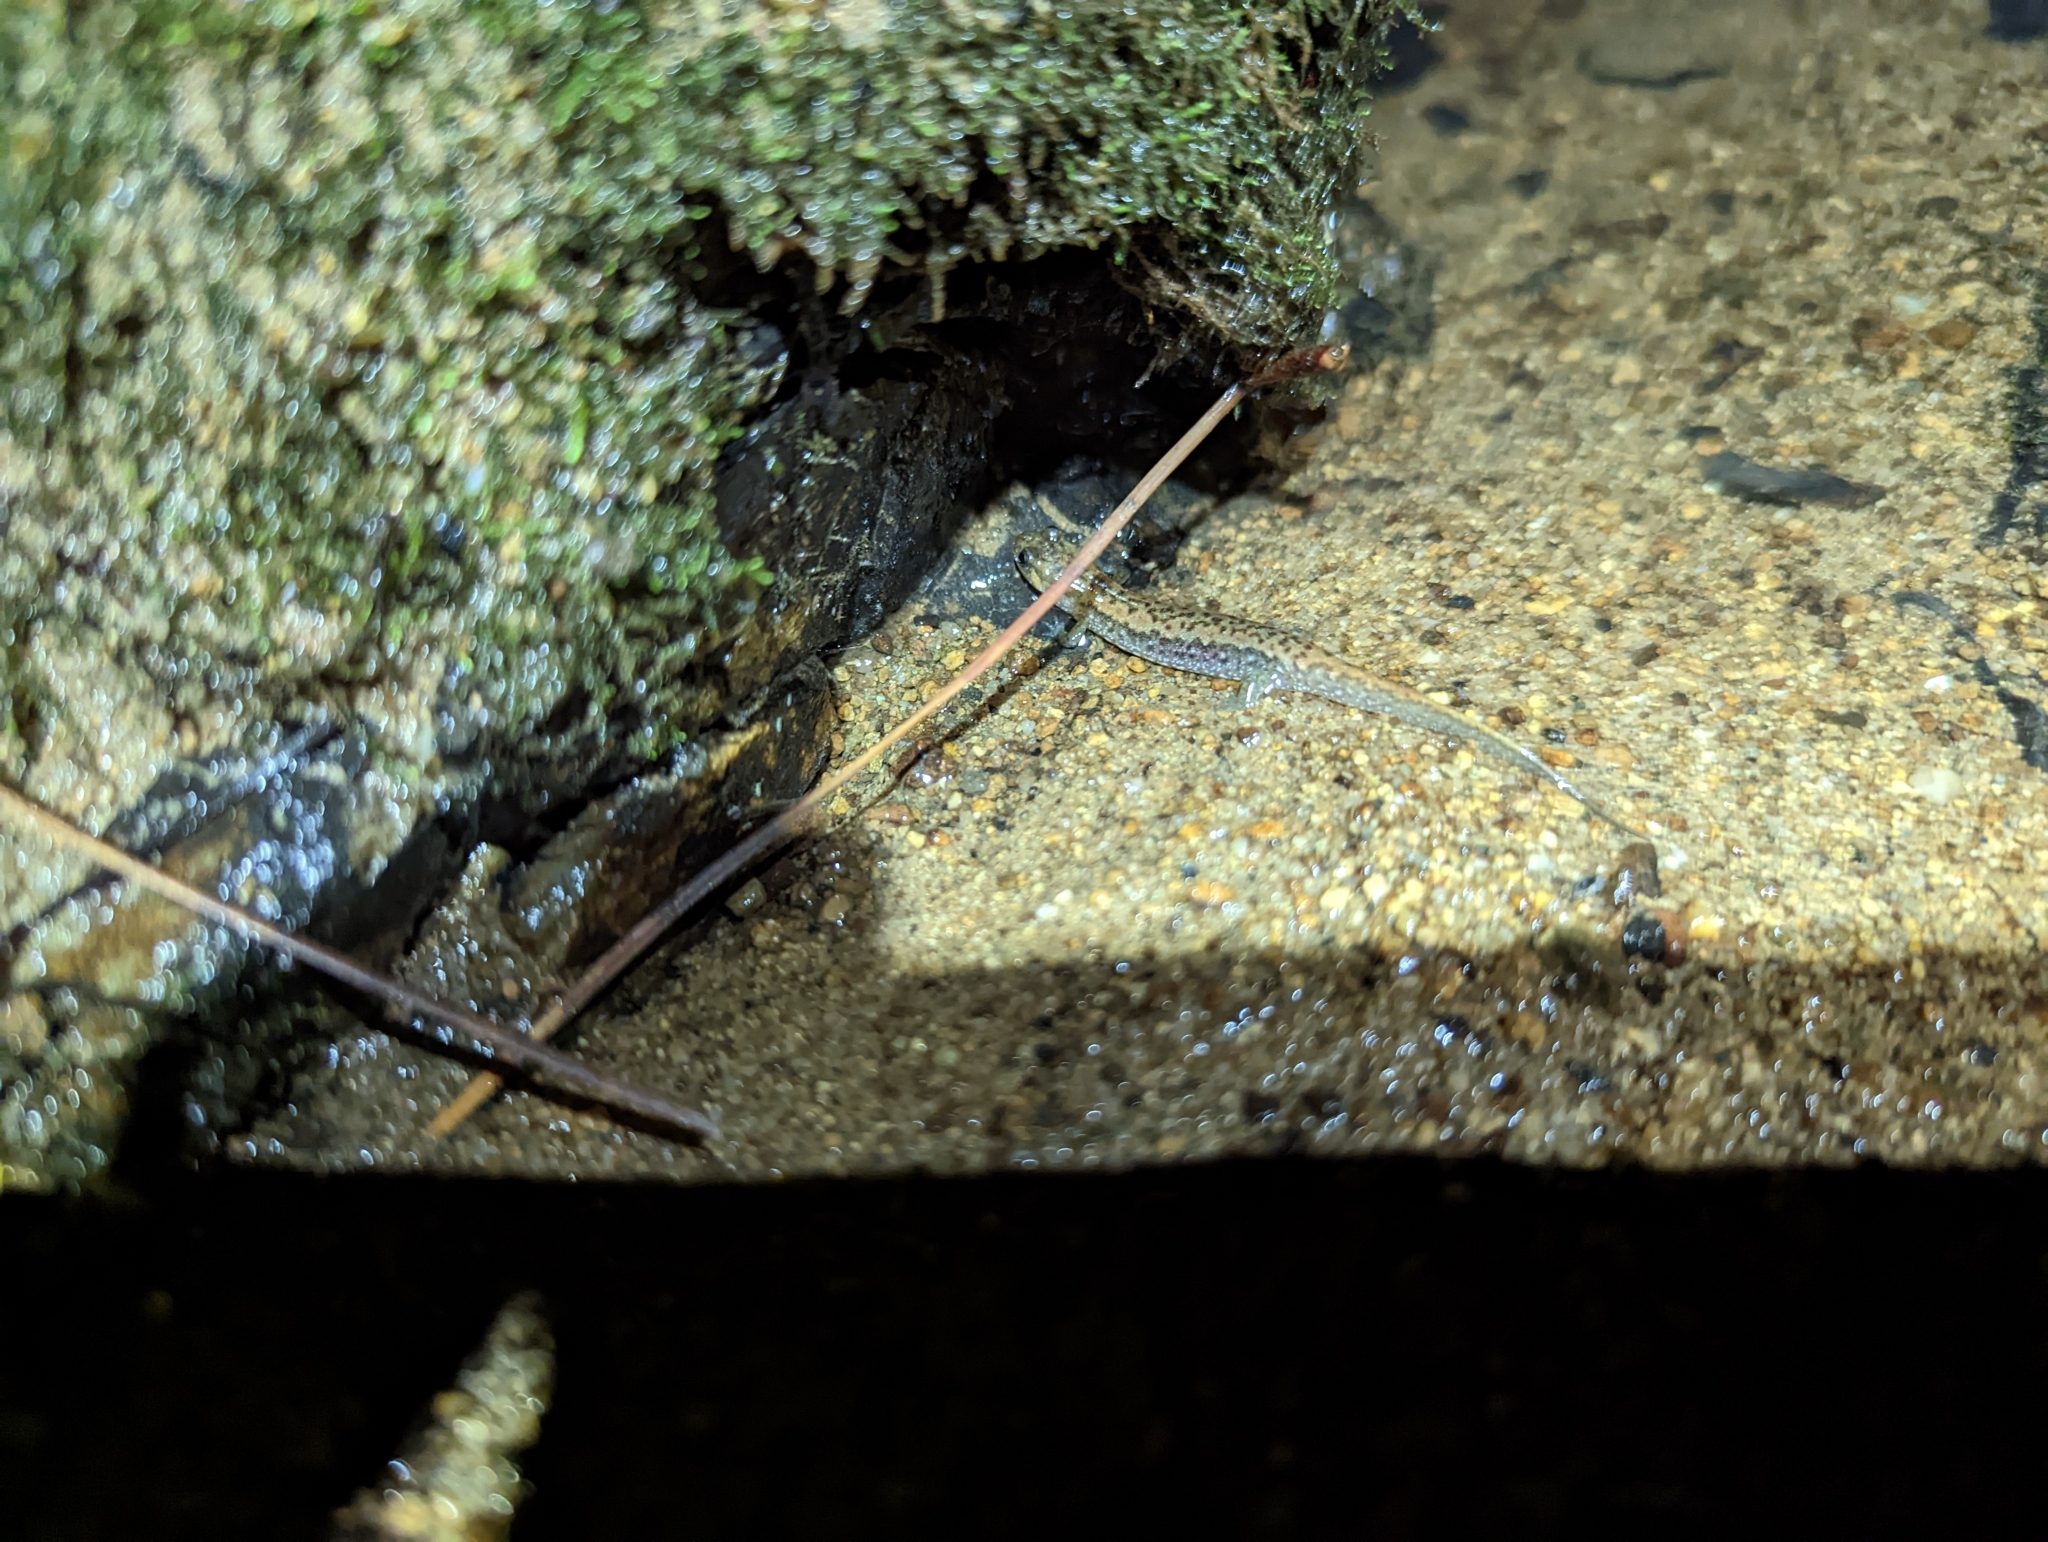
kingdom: Animalia
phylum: Chordata
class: Amphibia
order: Caudata
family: Plethodontidae
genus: Desmognathus
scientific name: Desmognathus
